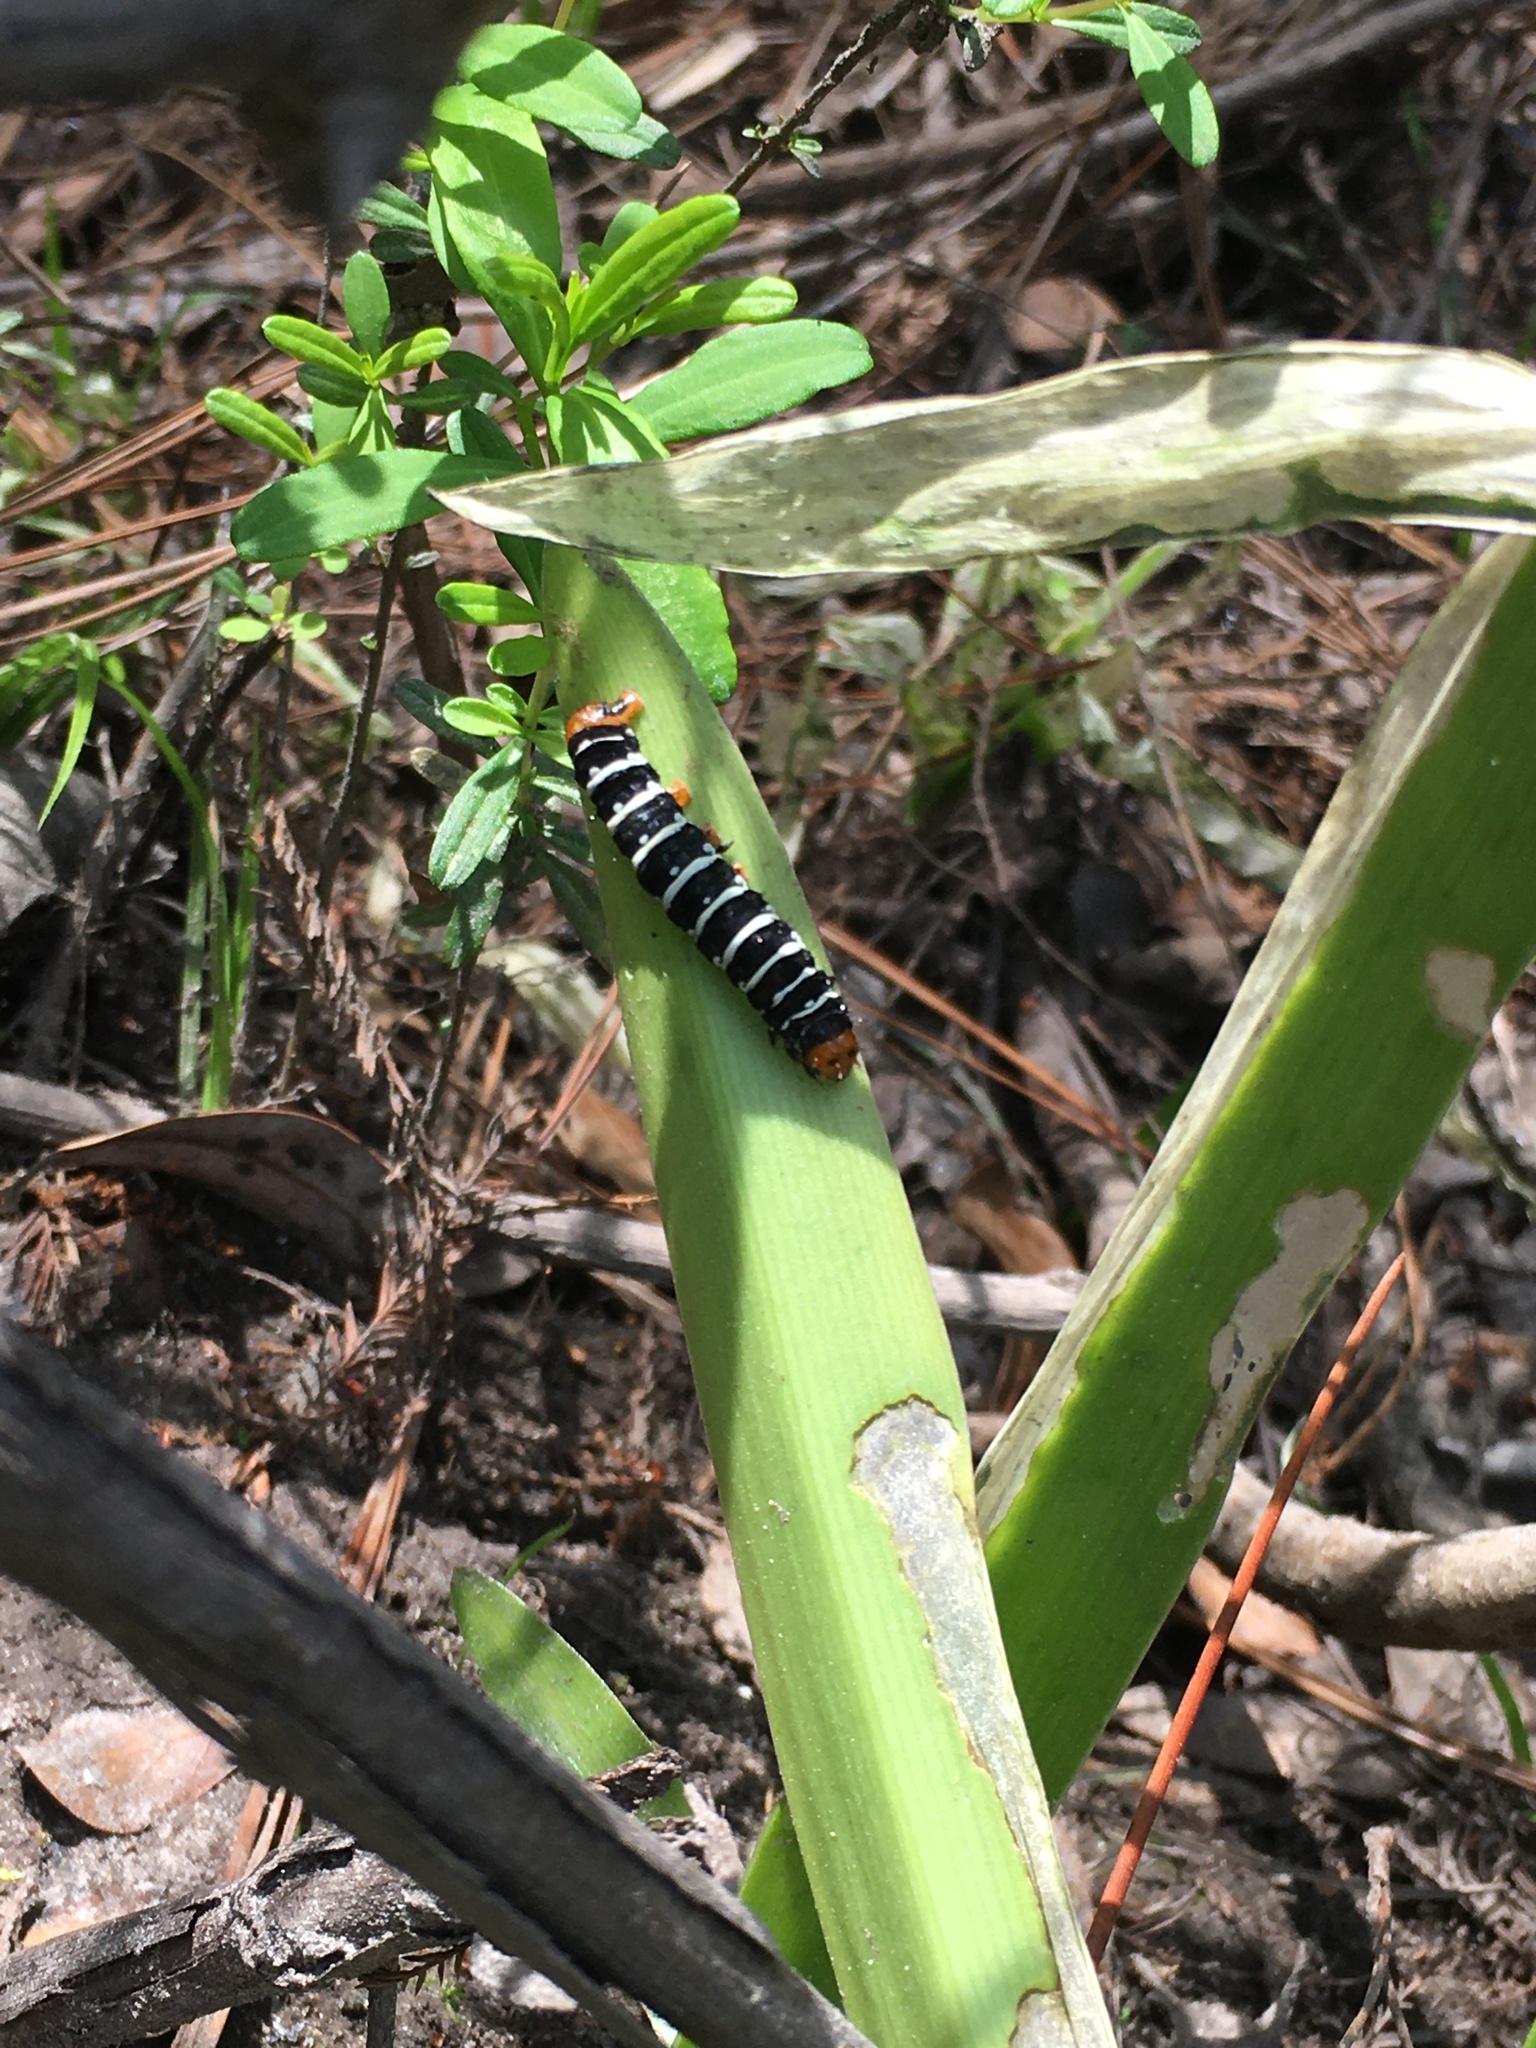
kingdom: Animalia
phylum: Arthropoda
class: Insecta
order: Lepidoptera
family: Noctuidae
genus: Xanthopastis
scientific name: Xanthopastis regnatrix
